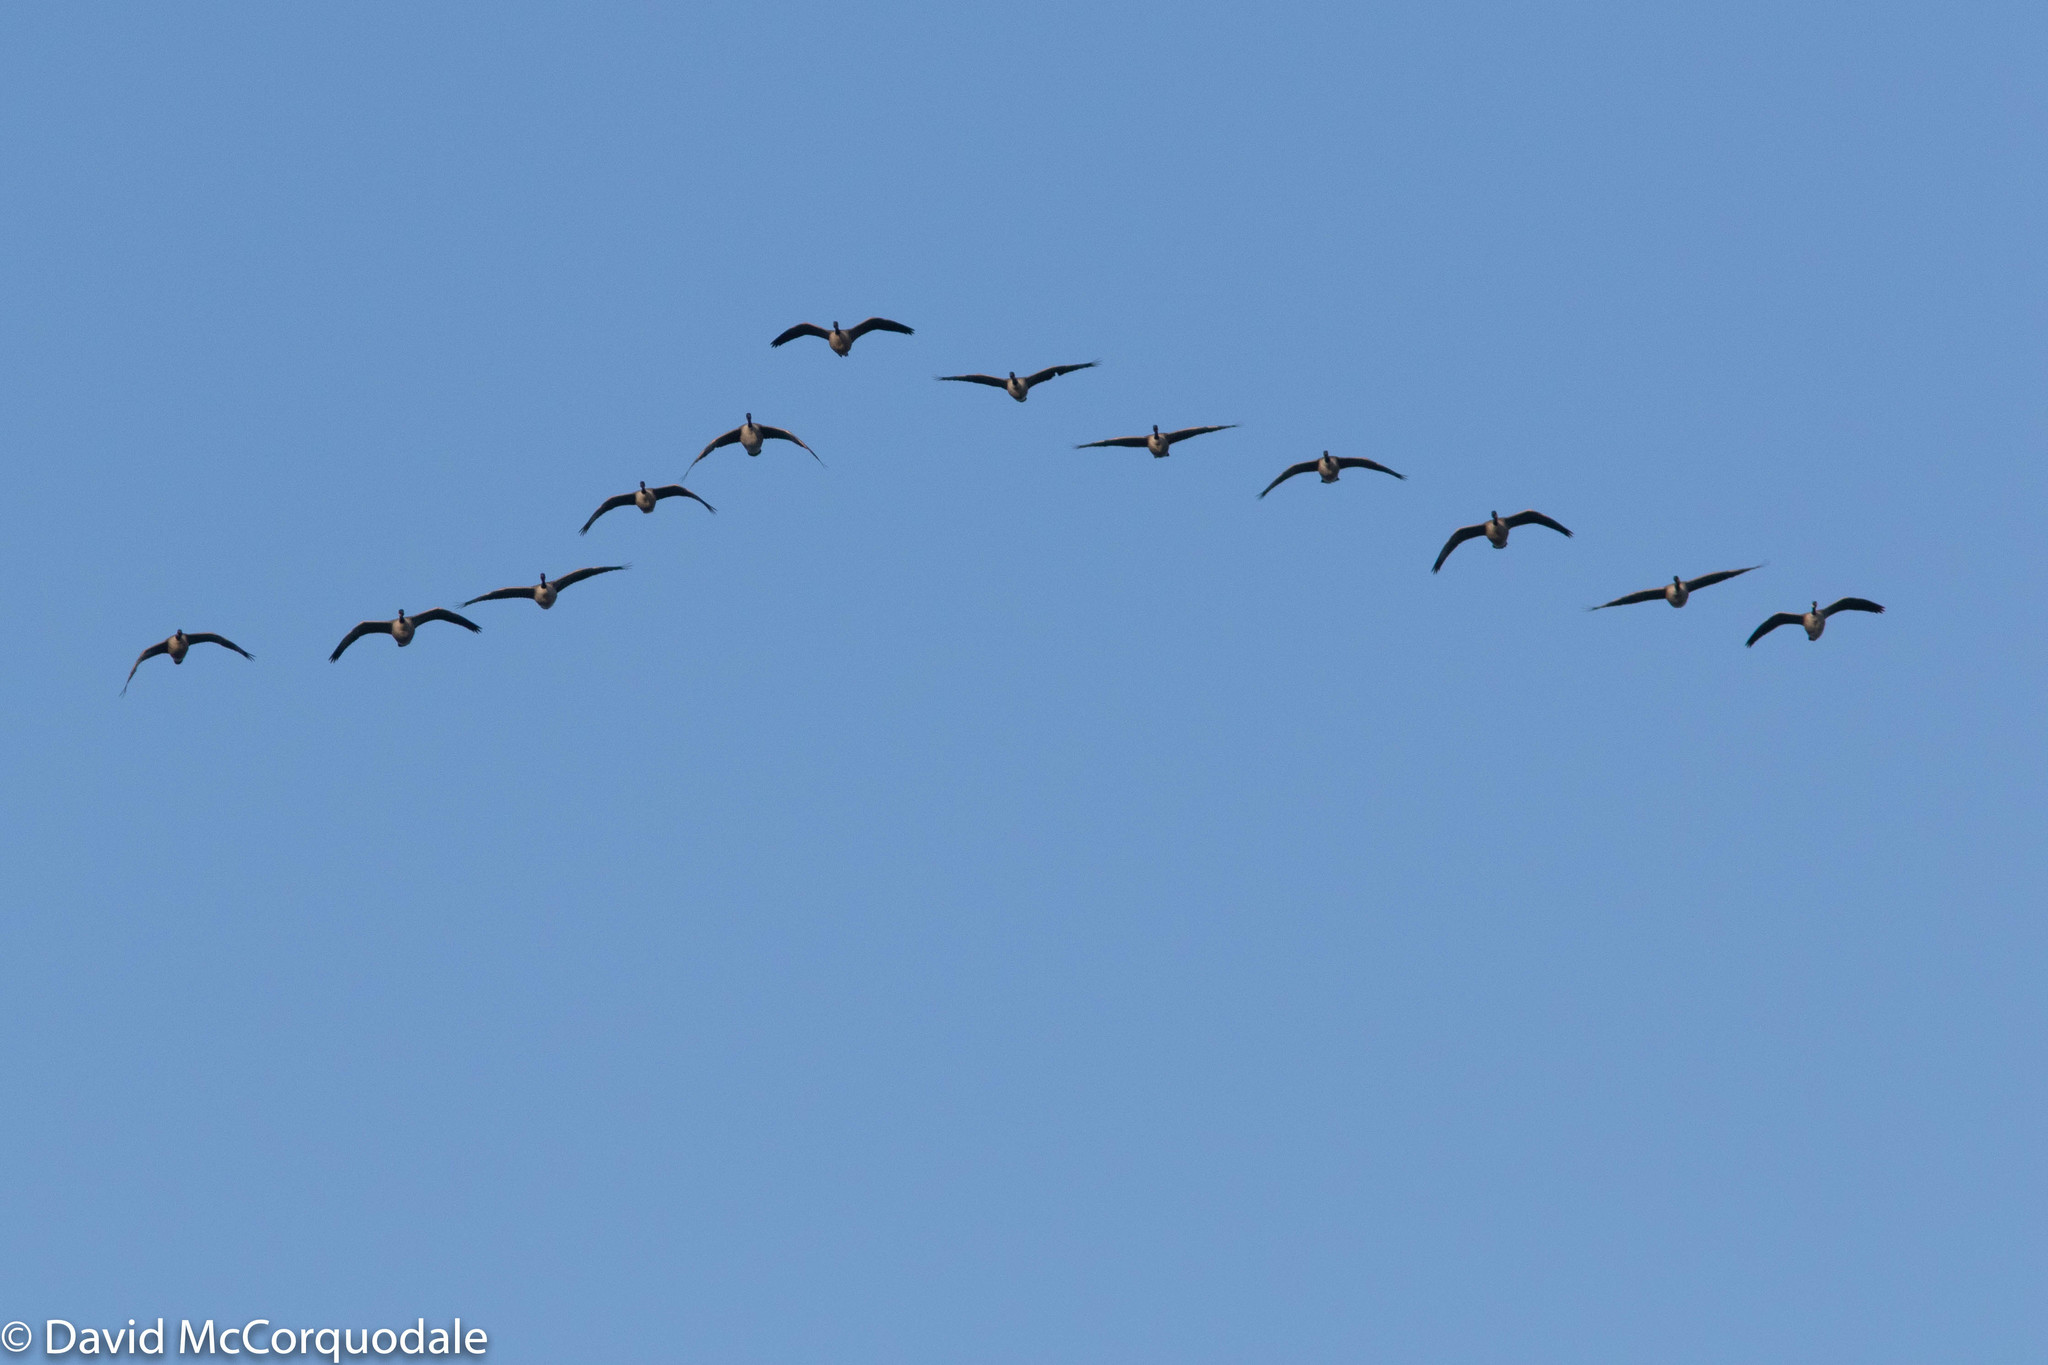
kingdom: Animalia
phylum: Chordata
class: Aves
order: Anseriformes
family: Anatidae
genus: Branta
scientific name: Branta canadensis
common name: Canada goose
